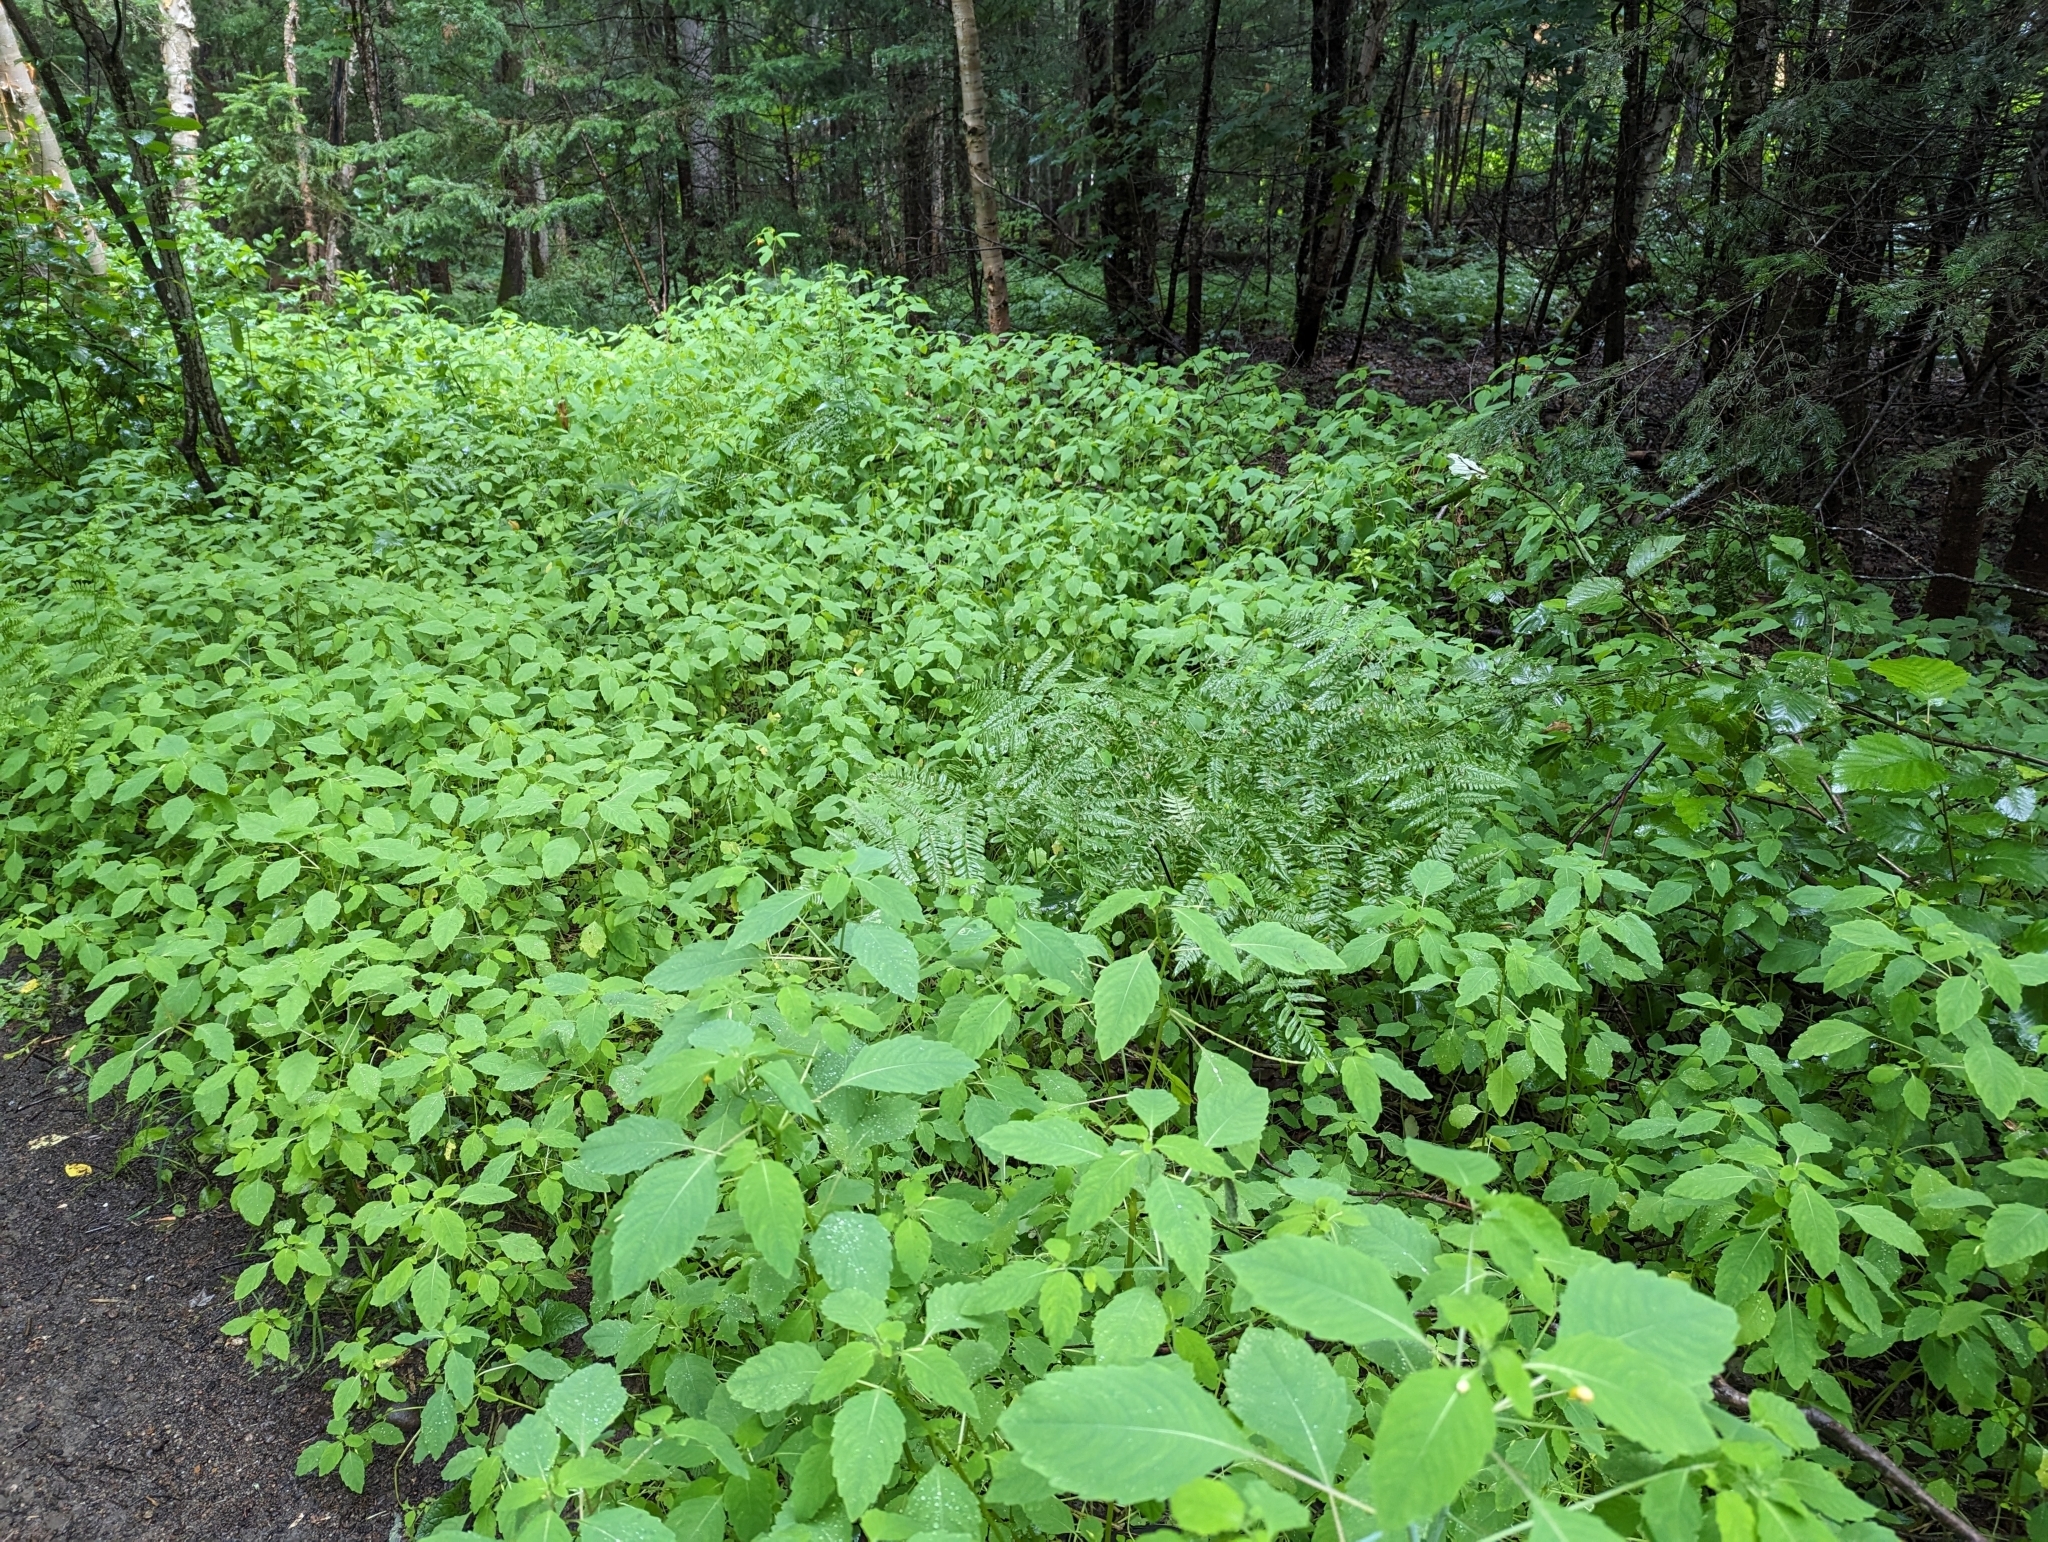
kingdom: Plantae
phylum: Tracheophyta
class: Magnoliopsida
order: Ericales
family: Balsaminaceae
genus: Impatiens
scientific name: Impatiens capensis
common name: Orange balsam
